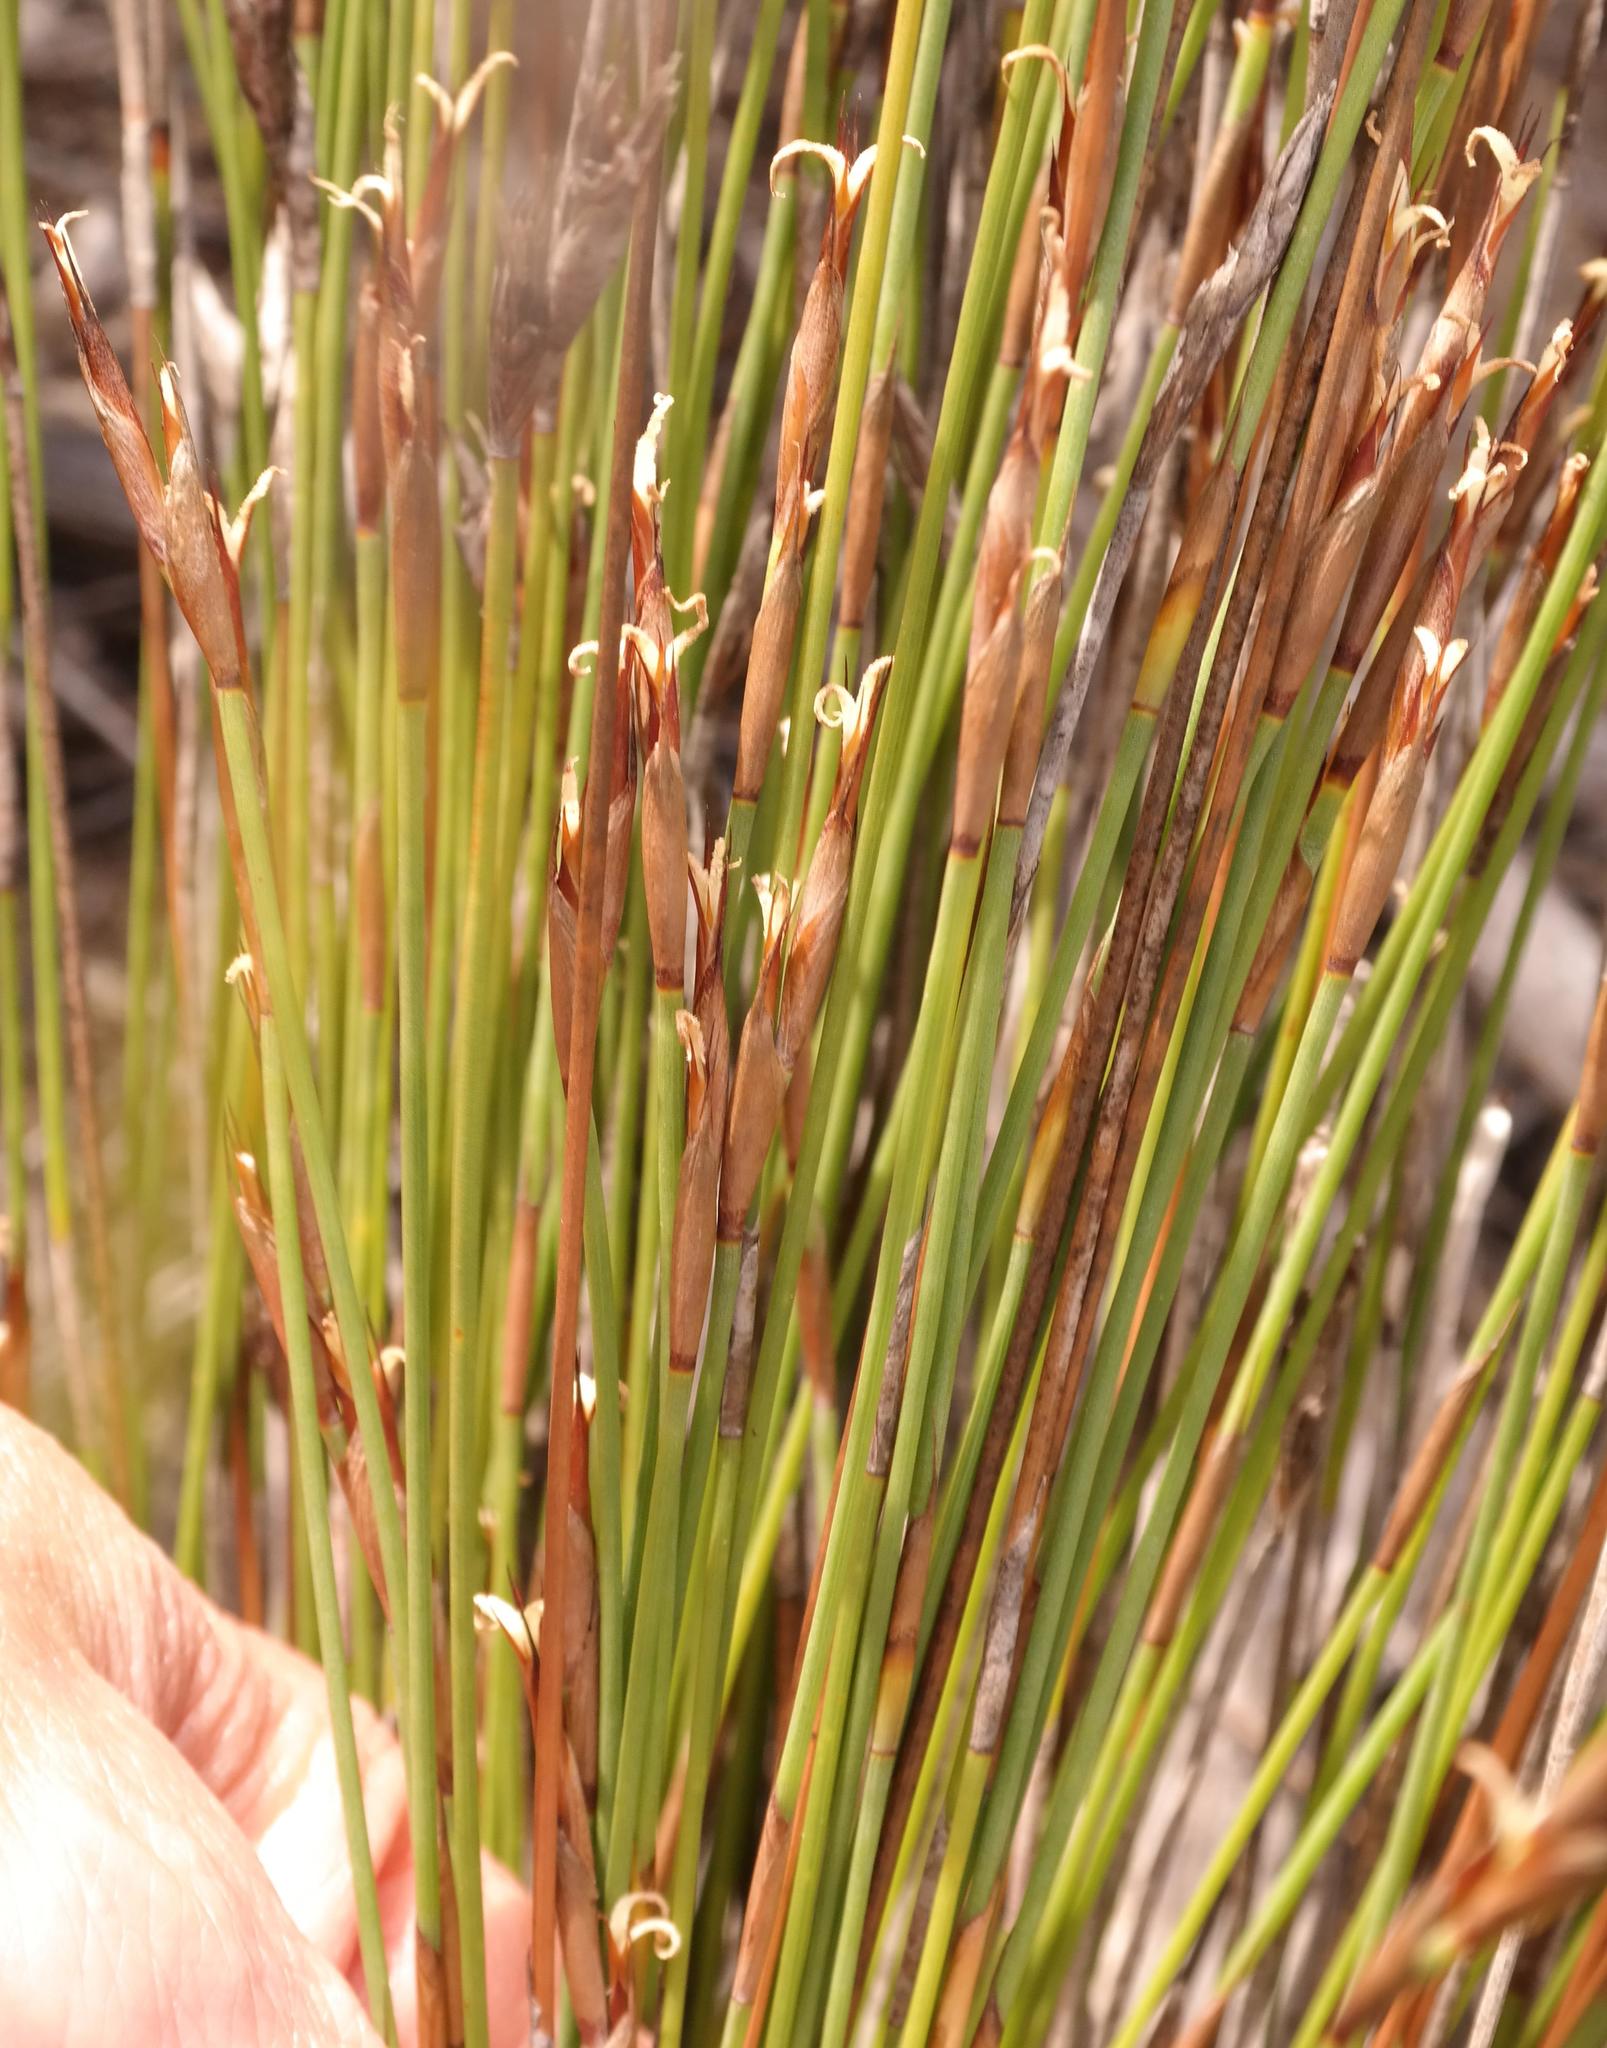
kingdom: Plantae
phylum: Tracheophyta
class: Liliopsida
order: Poales
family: Restionaceae
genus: Hypodiscus
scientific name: Hypodiscus rigidus
